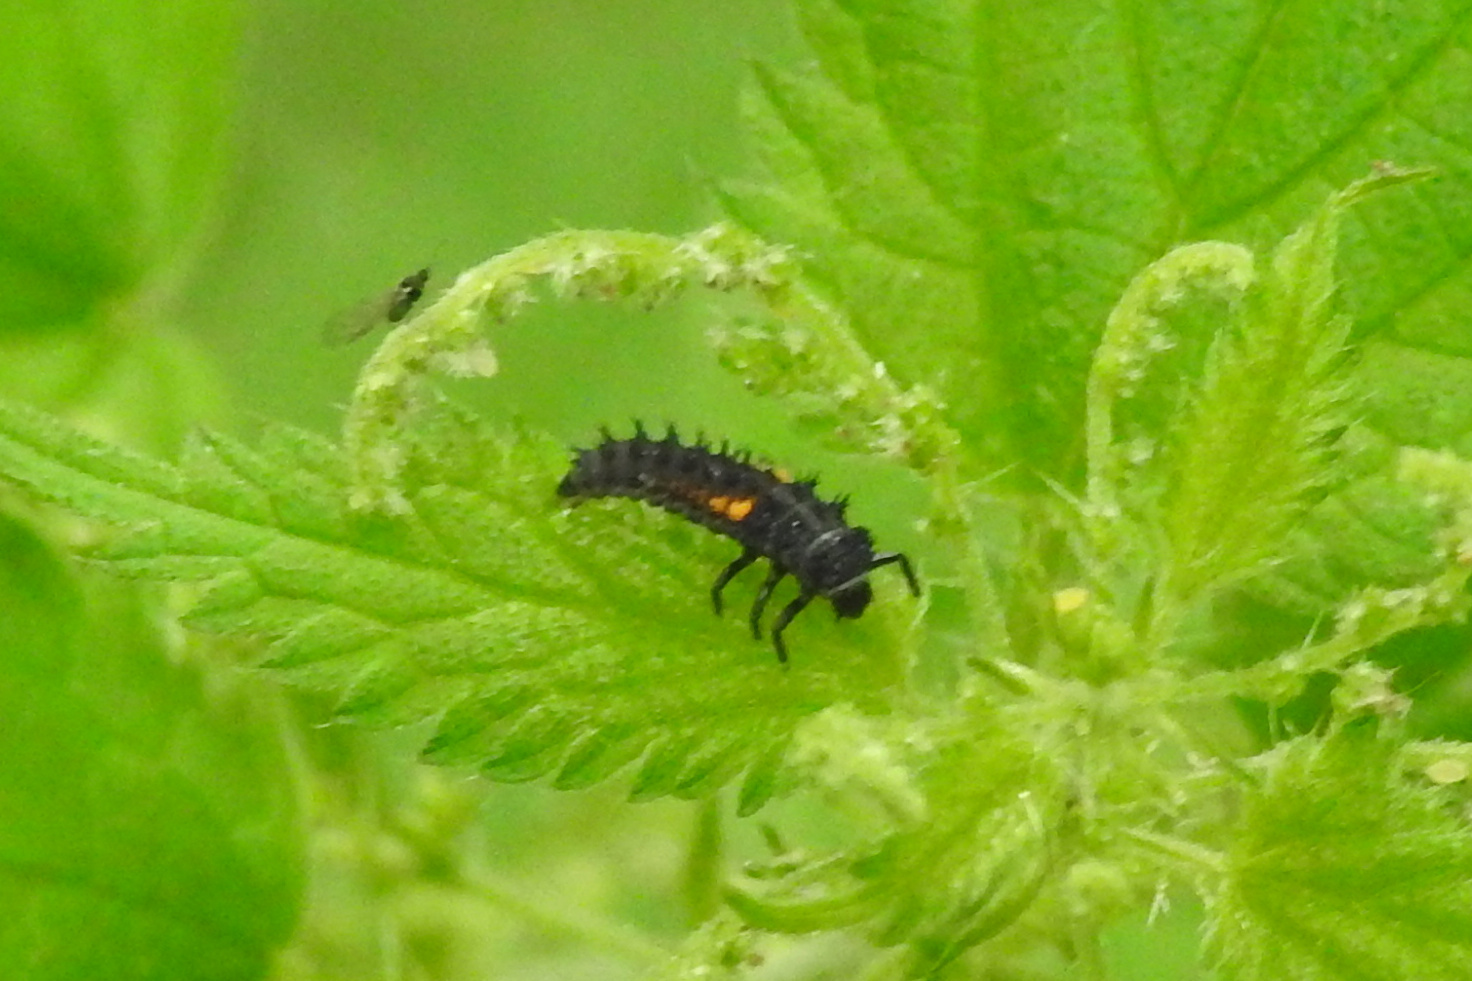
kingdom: Animalia
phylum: Arthropoda
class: Insecta
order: Coleoptera
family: Coccinellidae
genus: Harmonia
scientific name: Harmonia axyridis
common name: Harlequin ladybird
